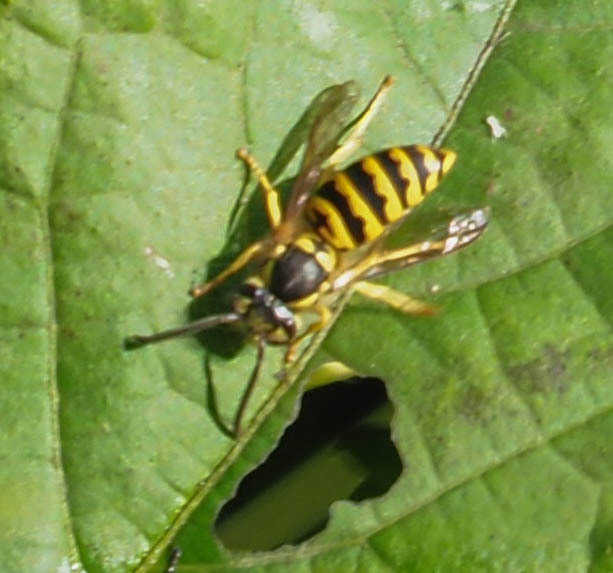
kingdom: Animalia
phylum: Arthropoda
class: Insecta
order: Hymenoptera
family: Vespidae
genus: Vespula
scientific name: Vespula maculifrons
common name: Eastern yellowjacket
